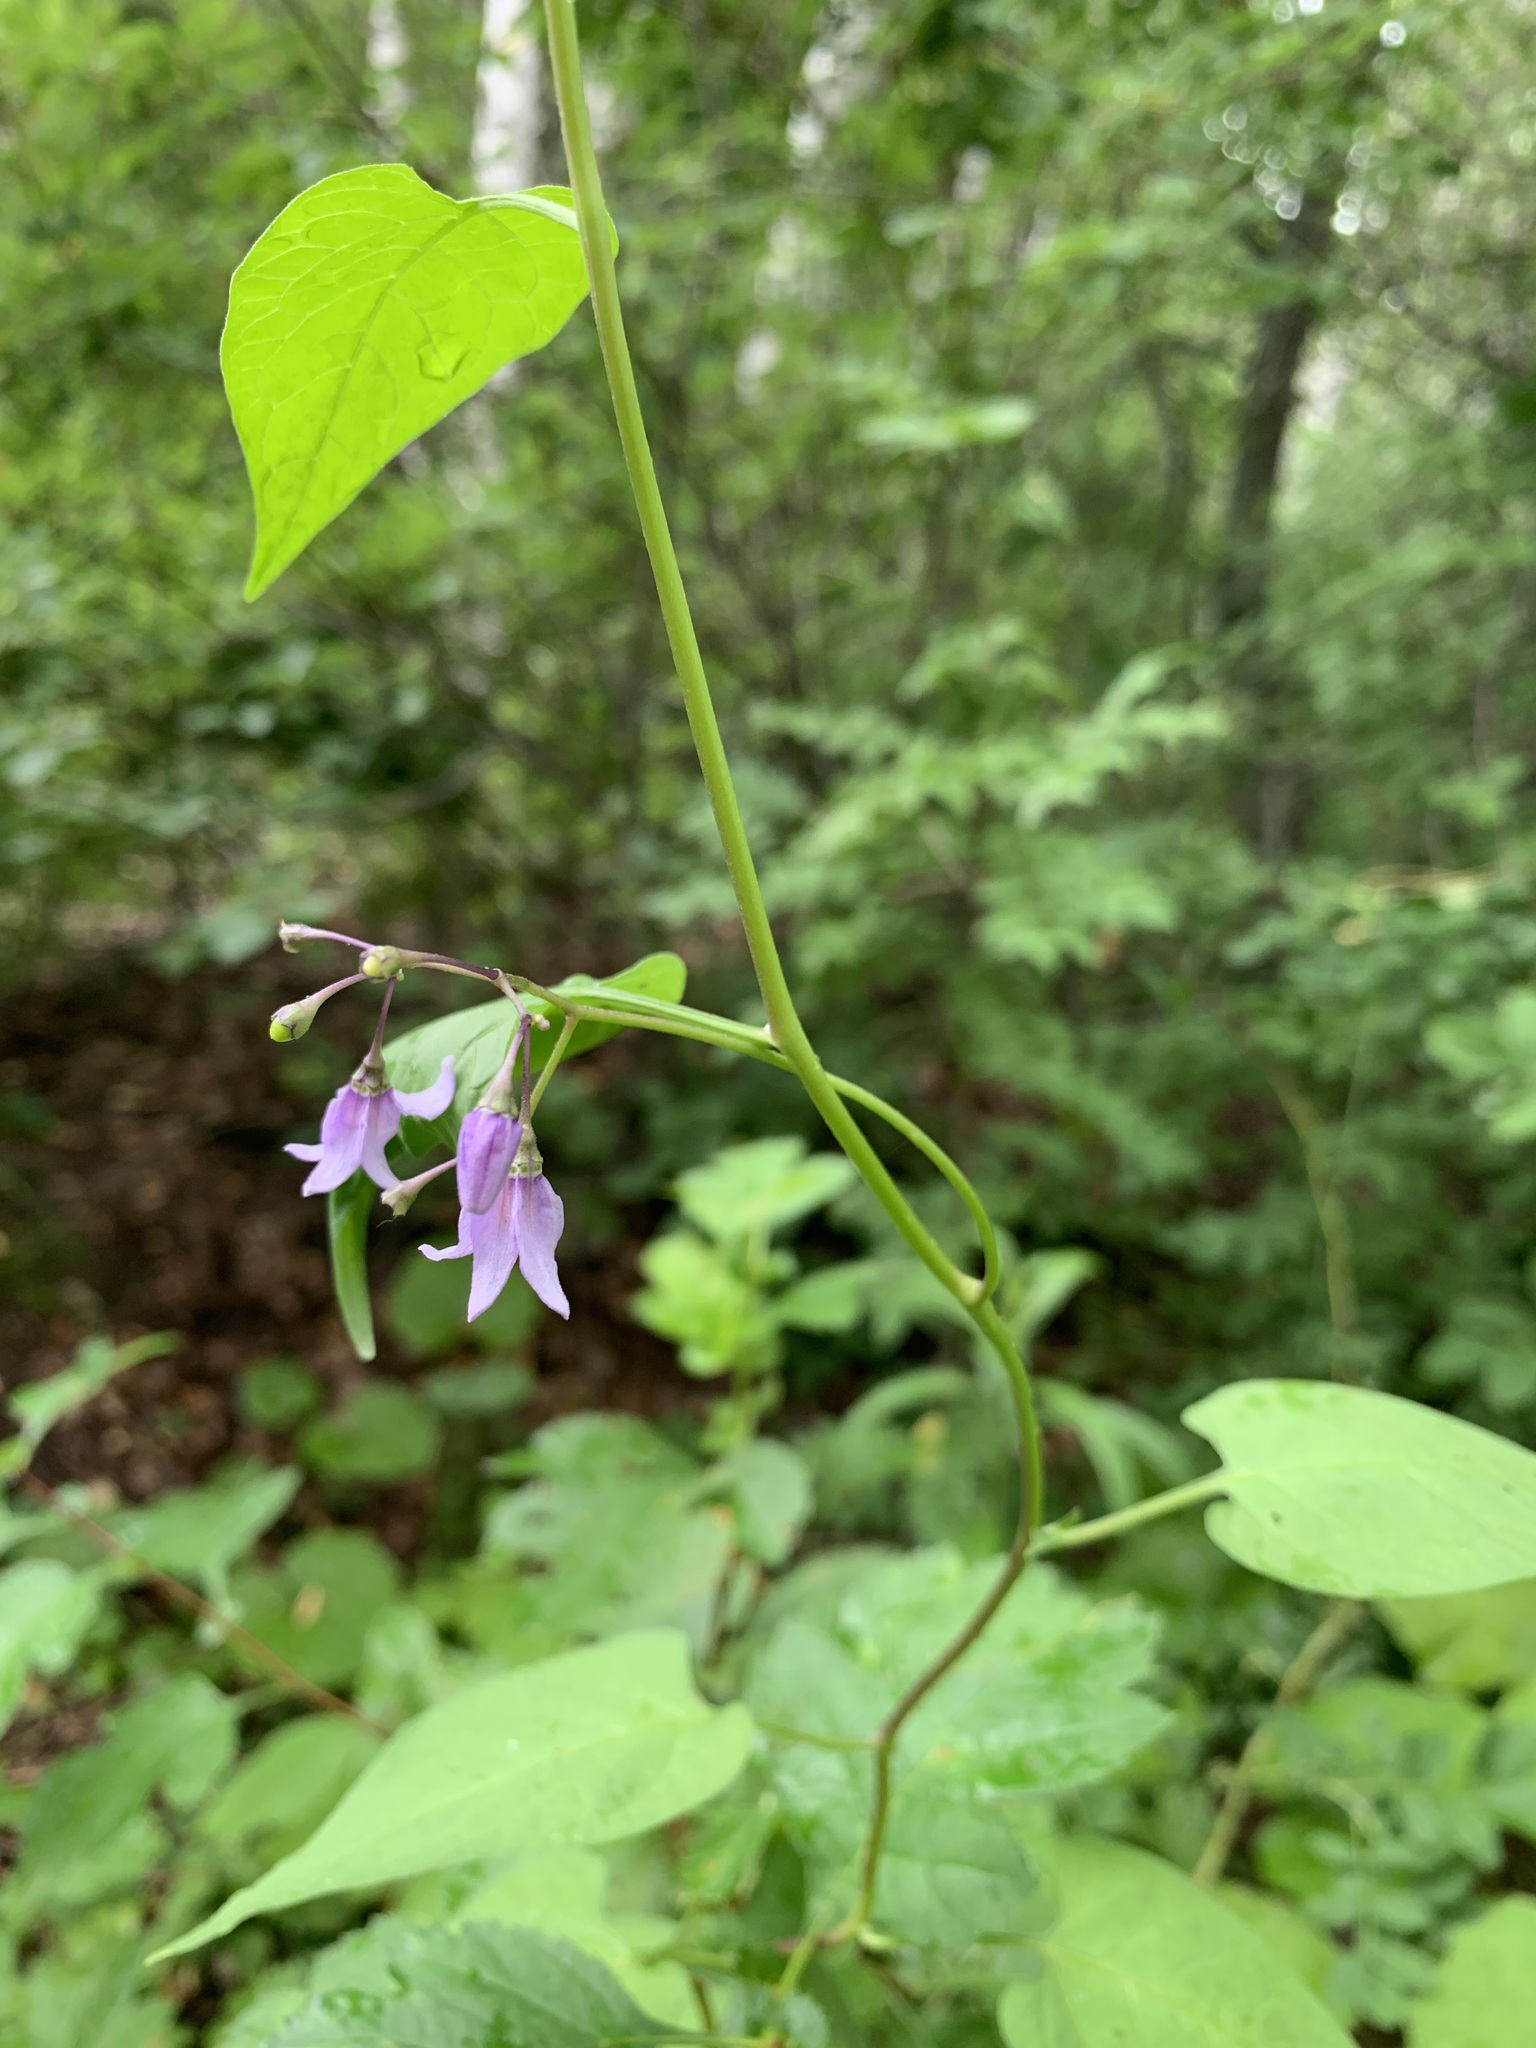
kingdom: Plantae
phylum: Tracheophyta
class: Magnoliopsida
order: Solanales
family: Solanaceae
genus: Solanum
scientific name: Solanum dulcamara
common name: Climbing nightshade
